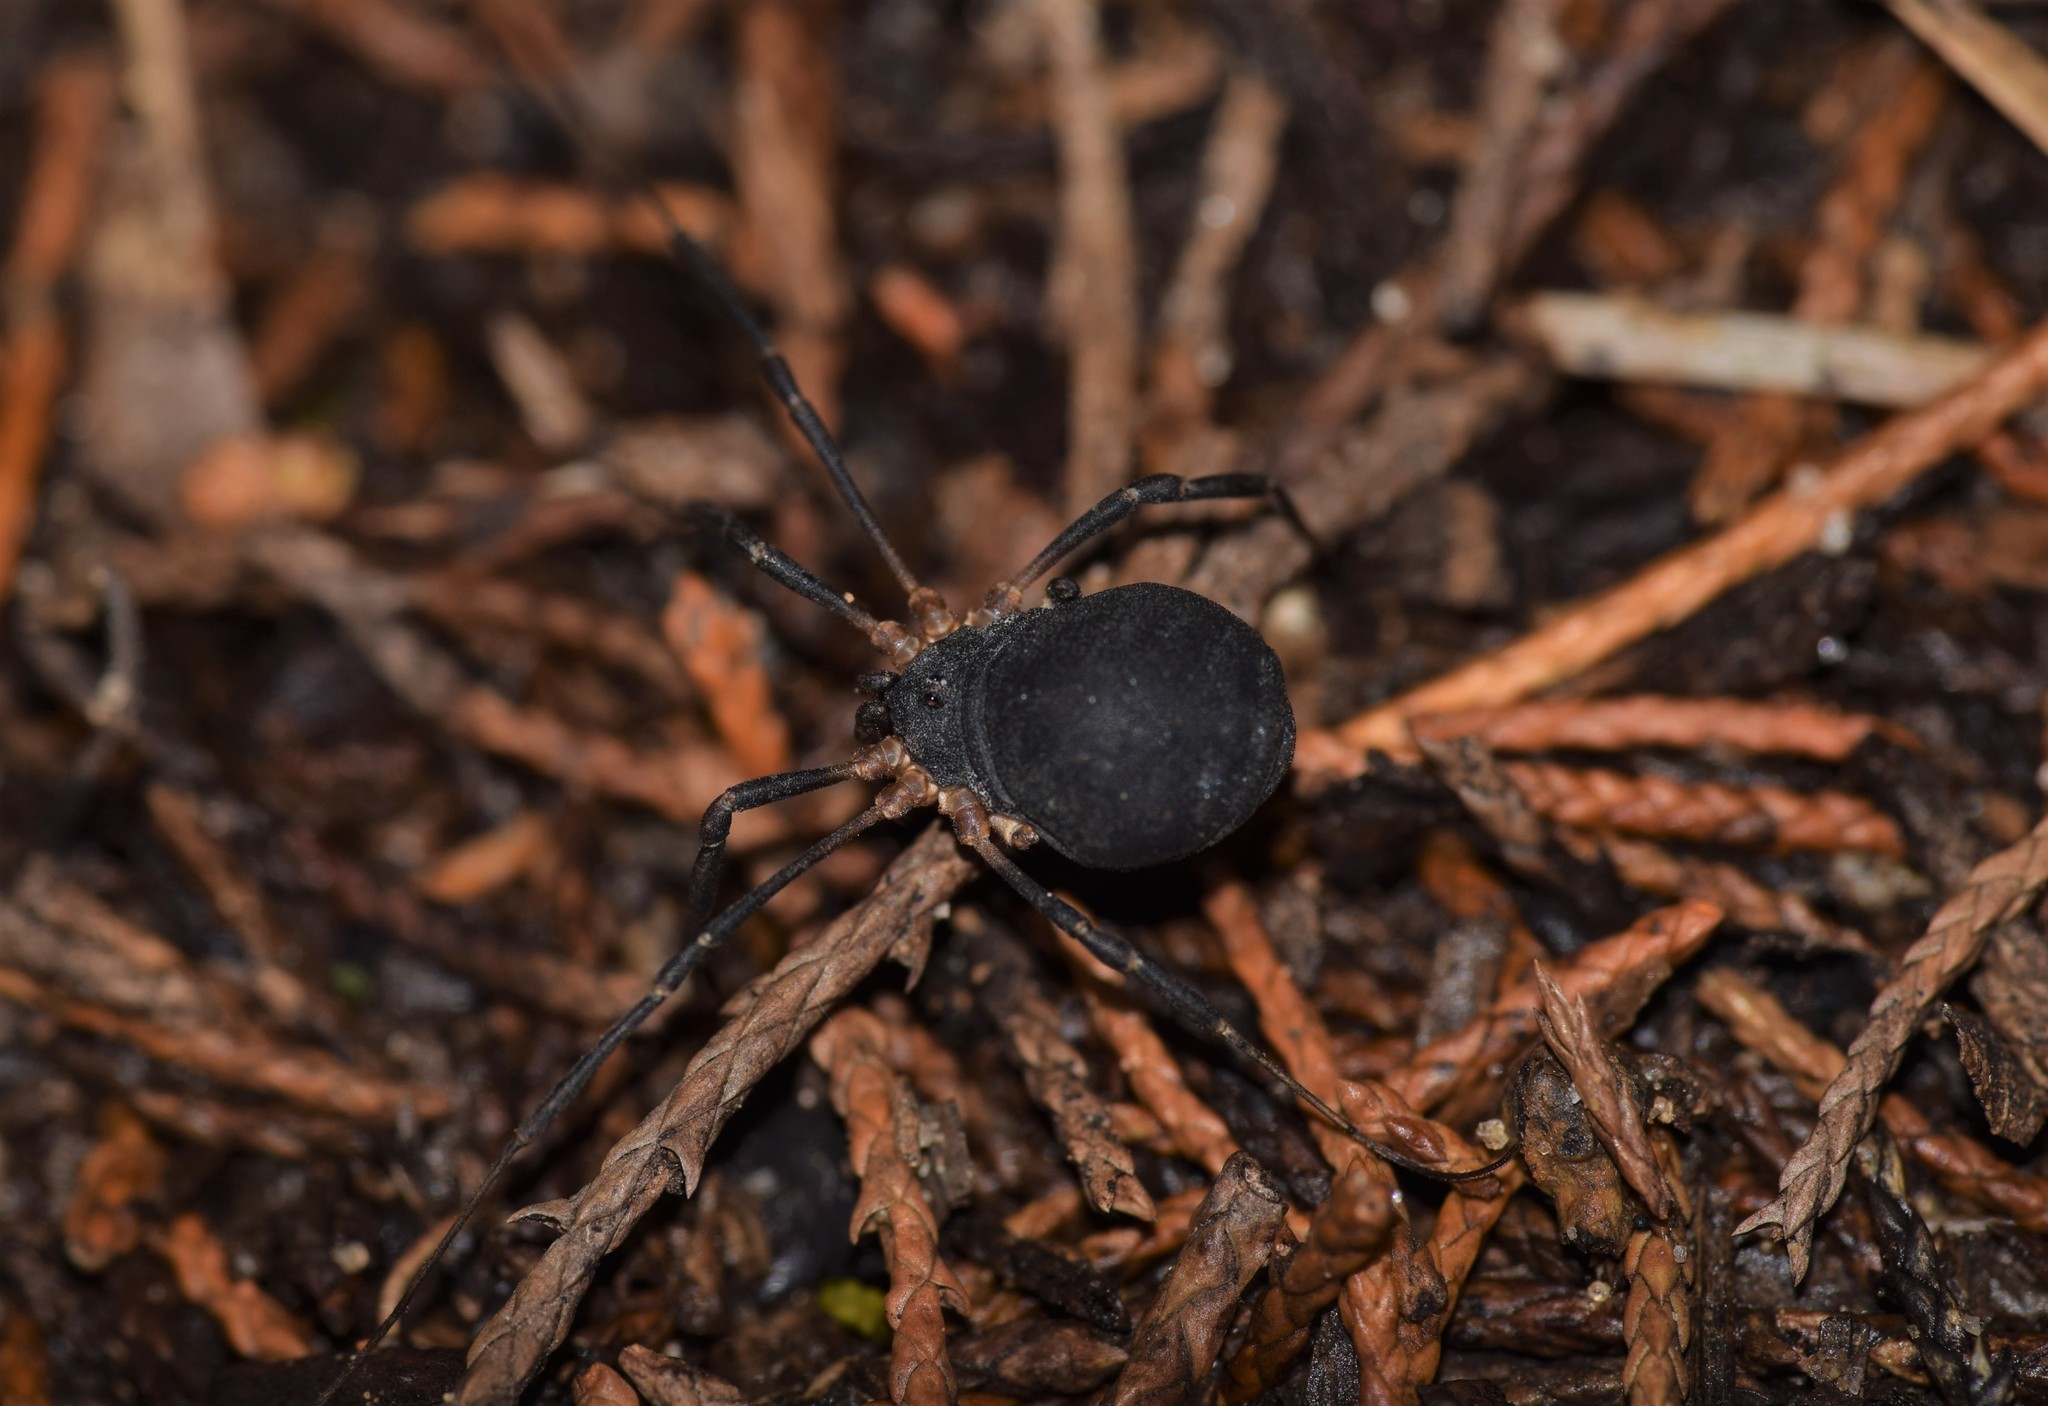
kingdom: Animalia
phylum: Arthropoda
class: Arachnida
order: Opiliones
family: Sclerosomatidae
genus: Eumesosoma
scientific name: Eumesosoma roeweri
